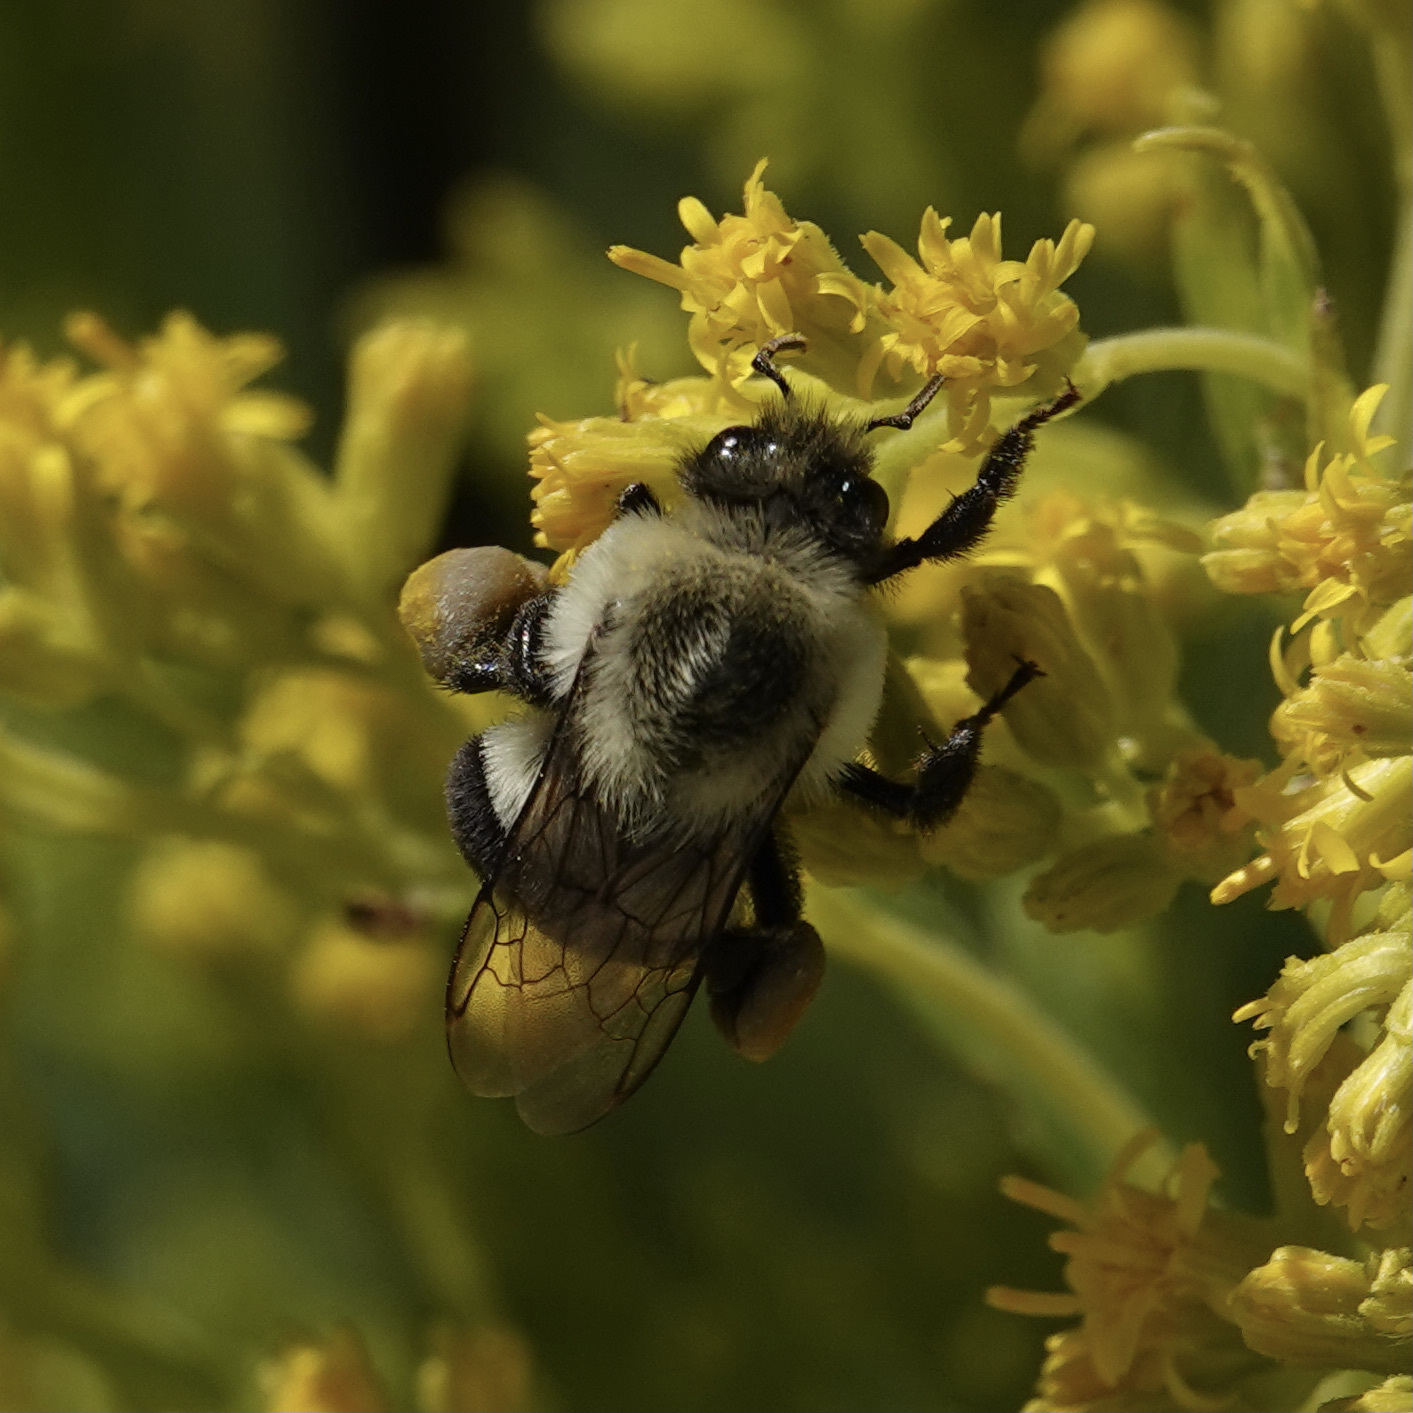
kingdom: Animalia
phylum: Arthropoda
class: Insecta
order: Hymenoptera
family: Apidae
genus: Bombus
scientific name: Bombus impatiens
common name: Common eastern bumble bee
